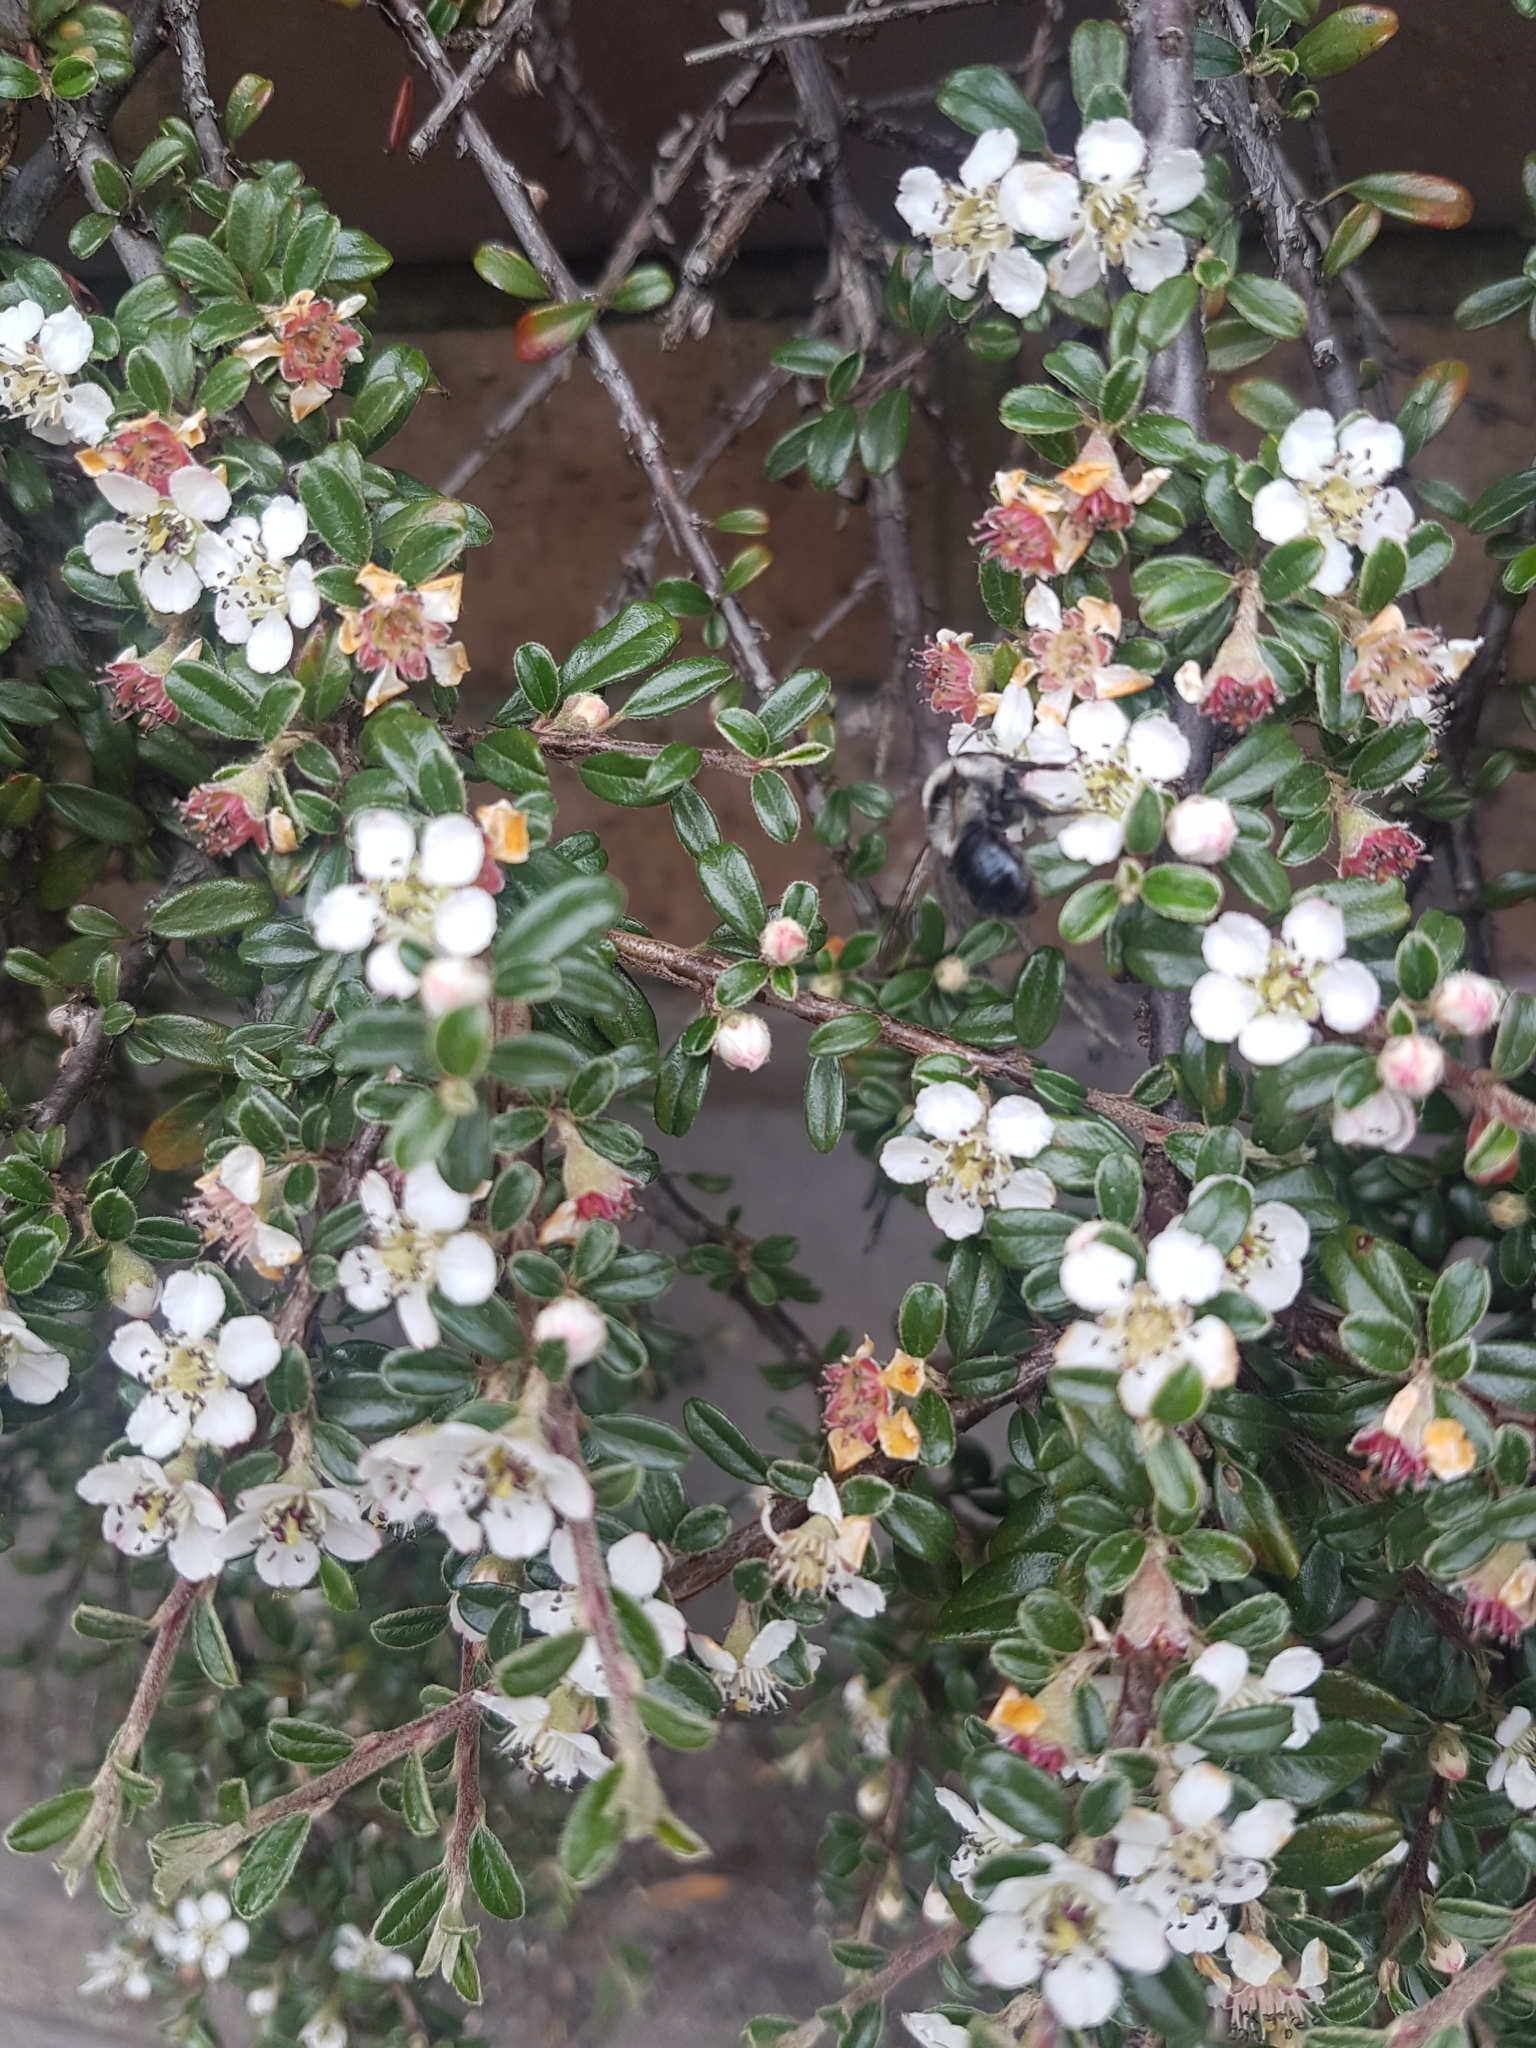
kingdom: Animalia
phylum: Arthropoda
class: Insecta
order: Hymenoptera
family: Andrenidae
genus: Andrena
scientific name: Andrena cineraria
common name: Ashy mining bee
